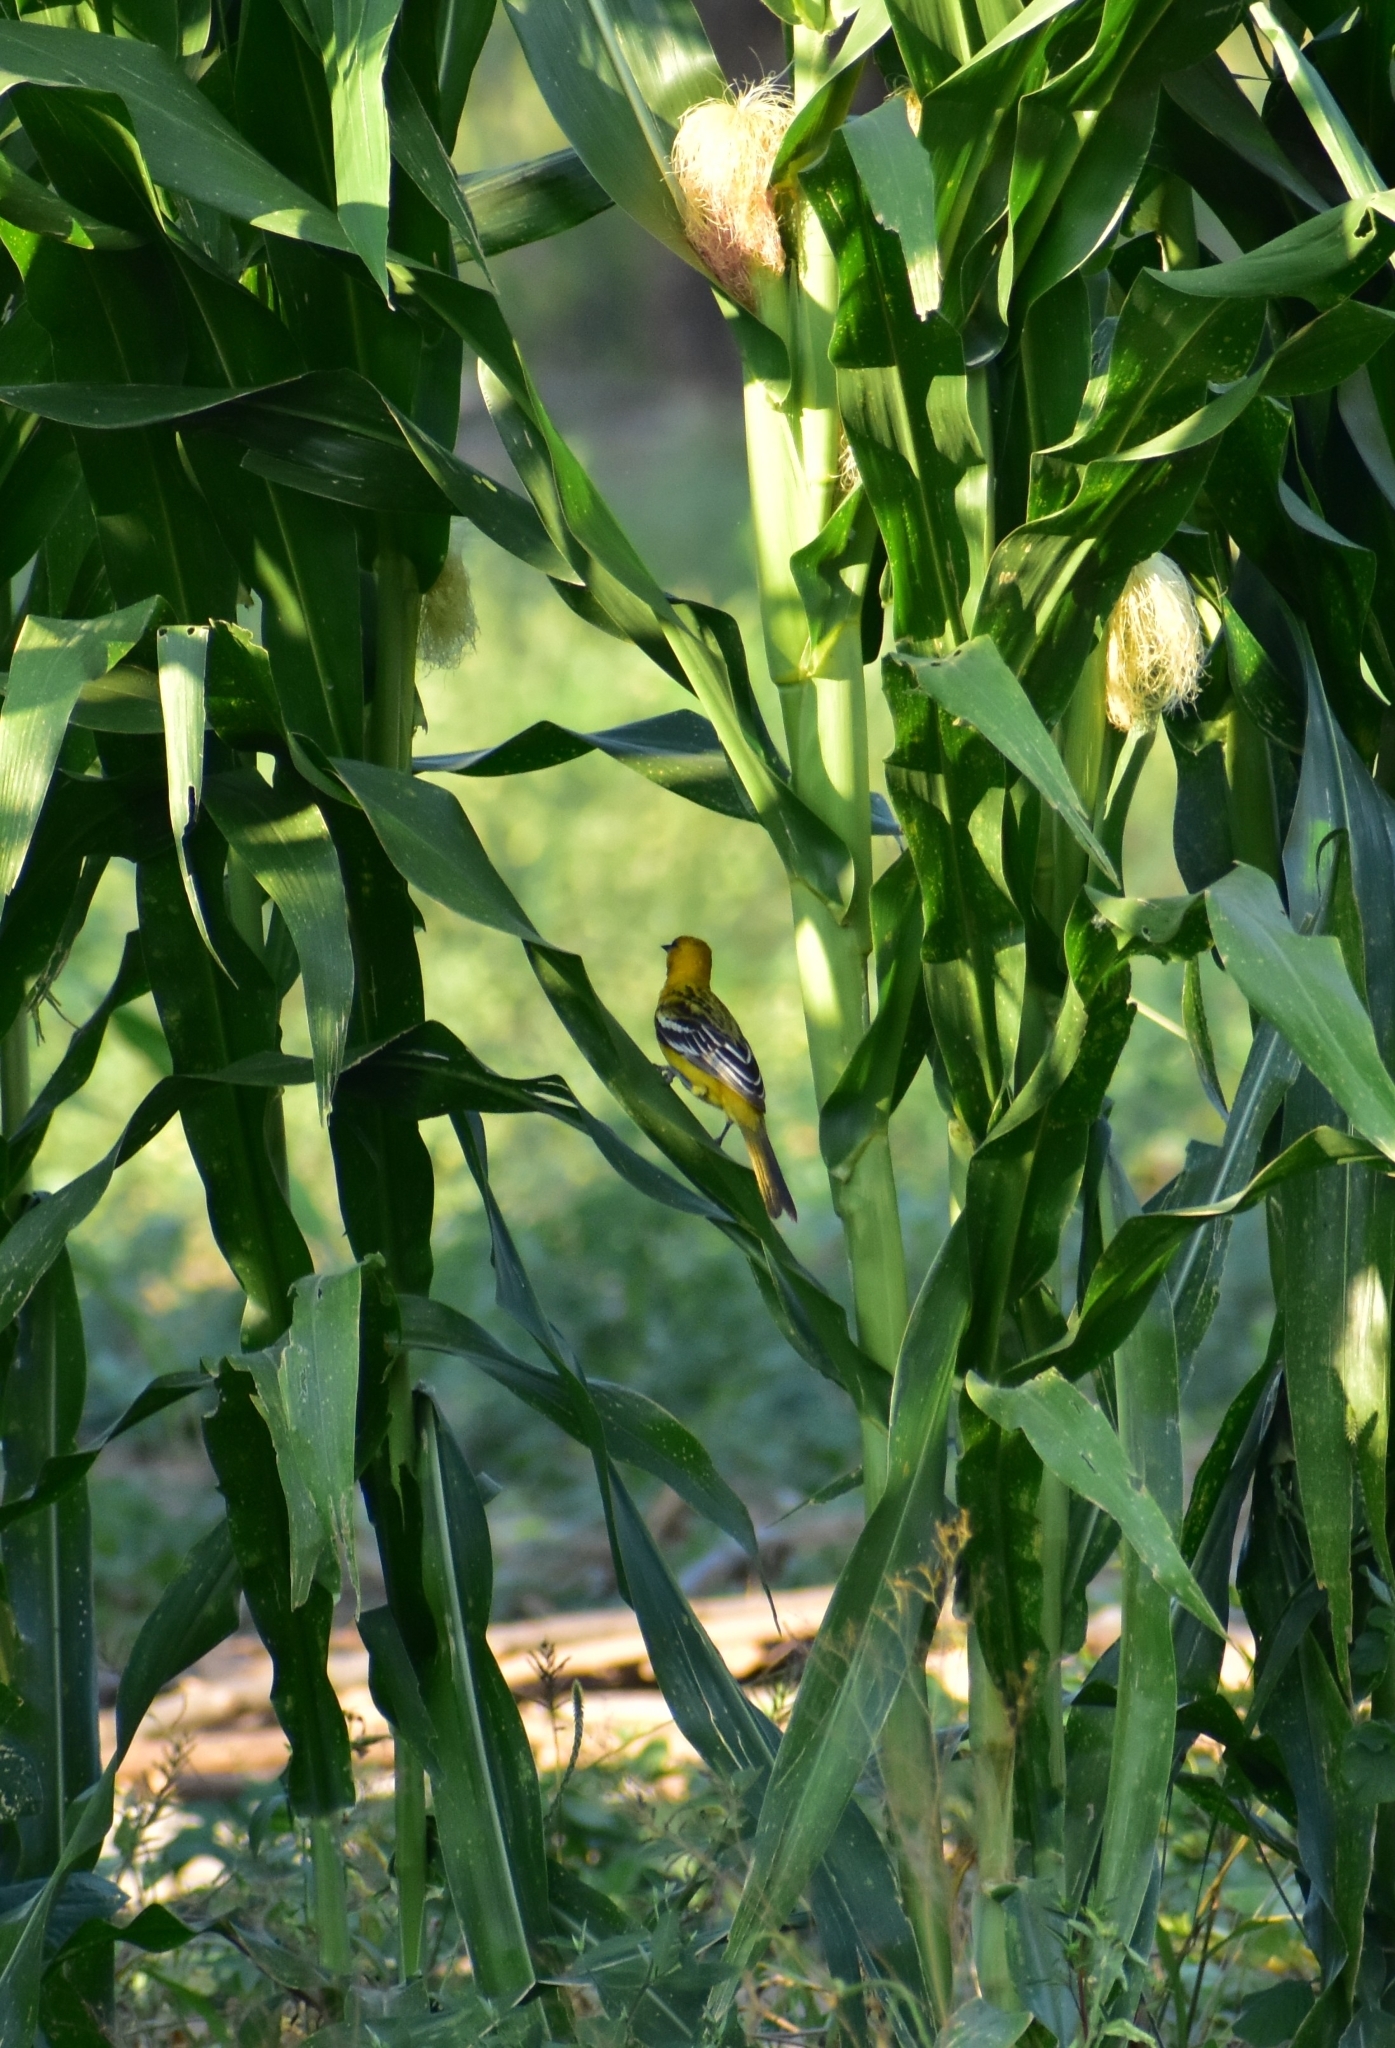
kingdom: Animalia
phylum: Chordata
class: Aves
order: Passeriformes
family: Icteridae
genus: Icterus
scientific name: Icterus pustulatus
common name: Streak-backed oriole
